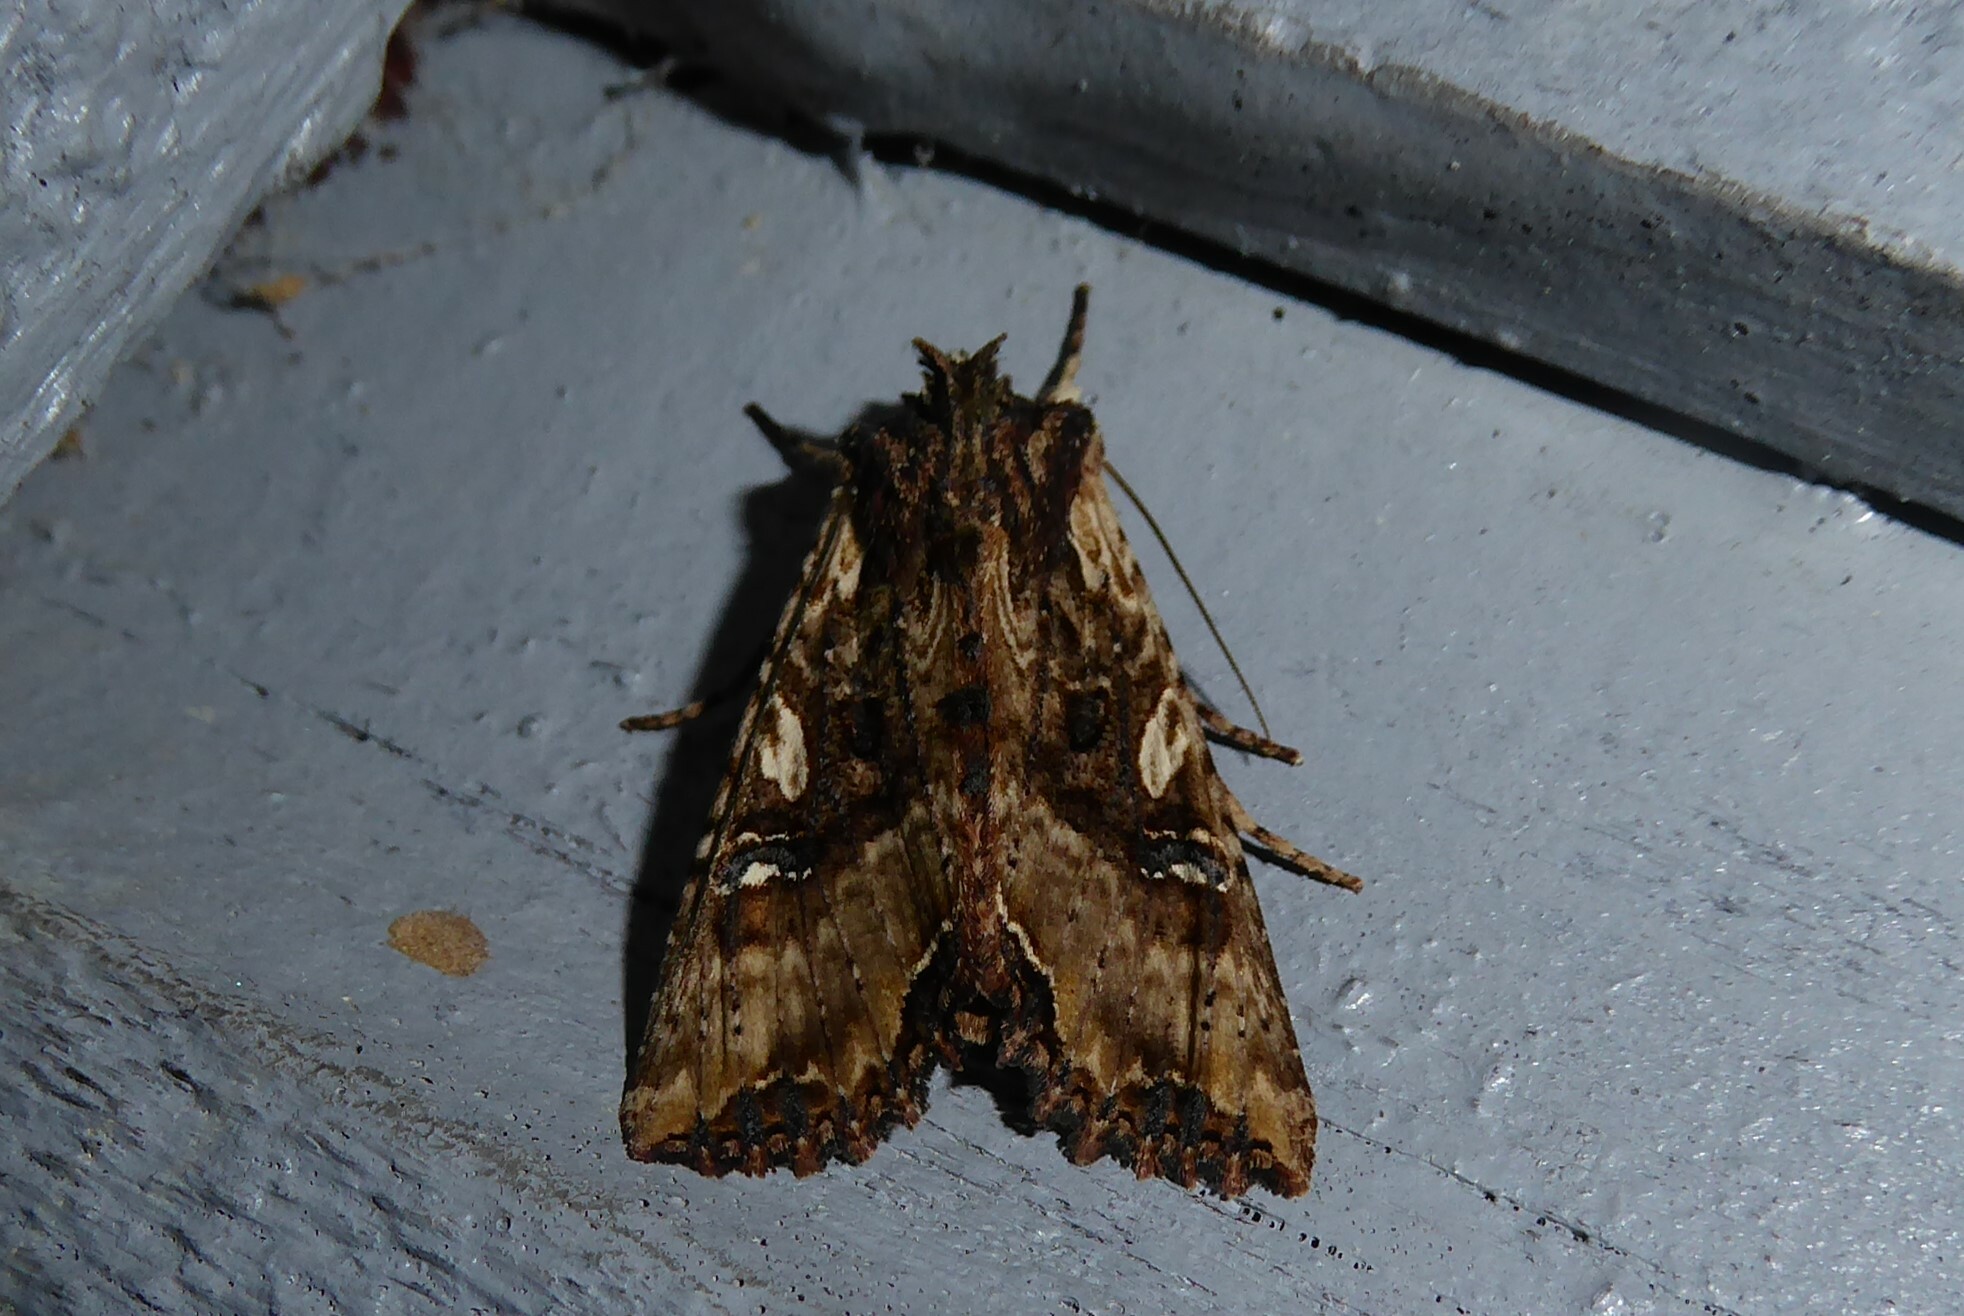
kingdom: Animalia
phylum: Arthropoda
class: Insecta
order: Lepidoptera
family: Noctuidae
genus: Meterana
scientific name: Meterana stipata
